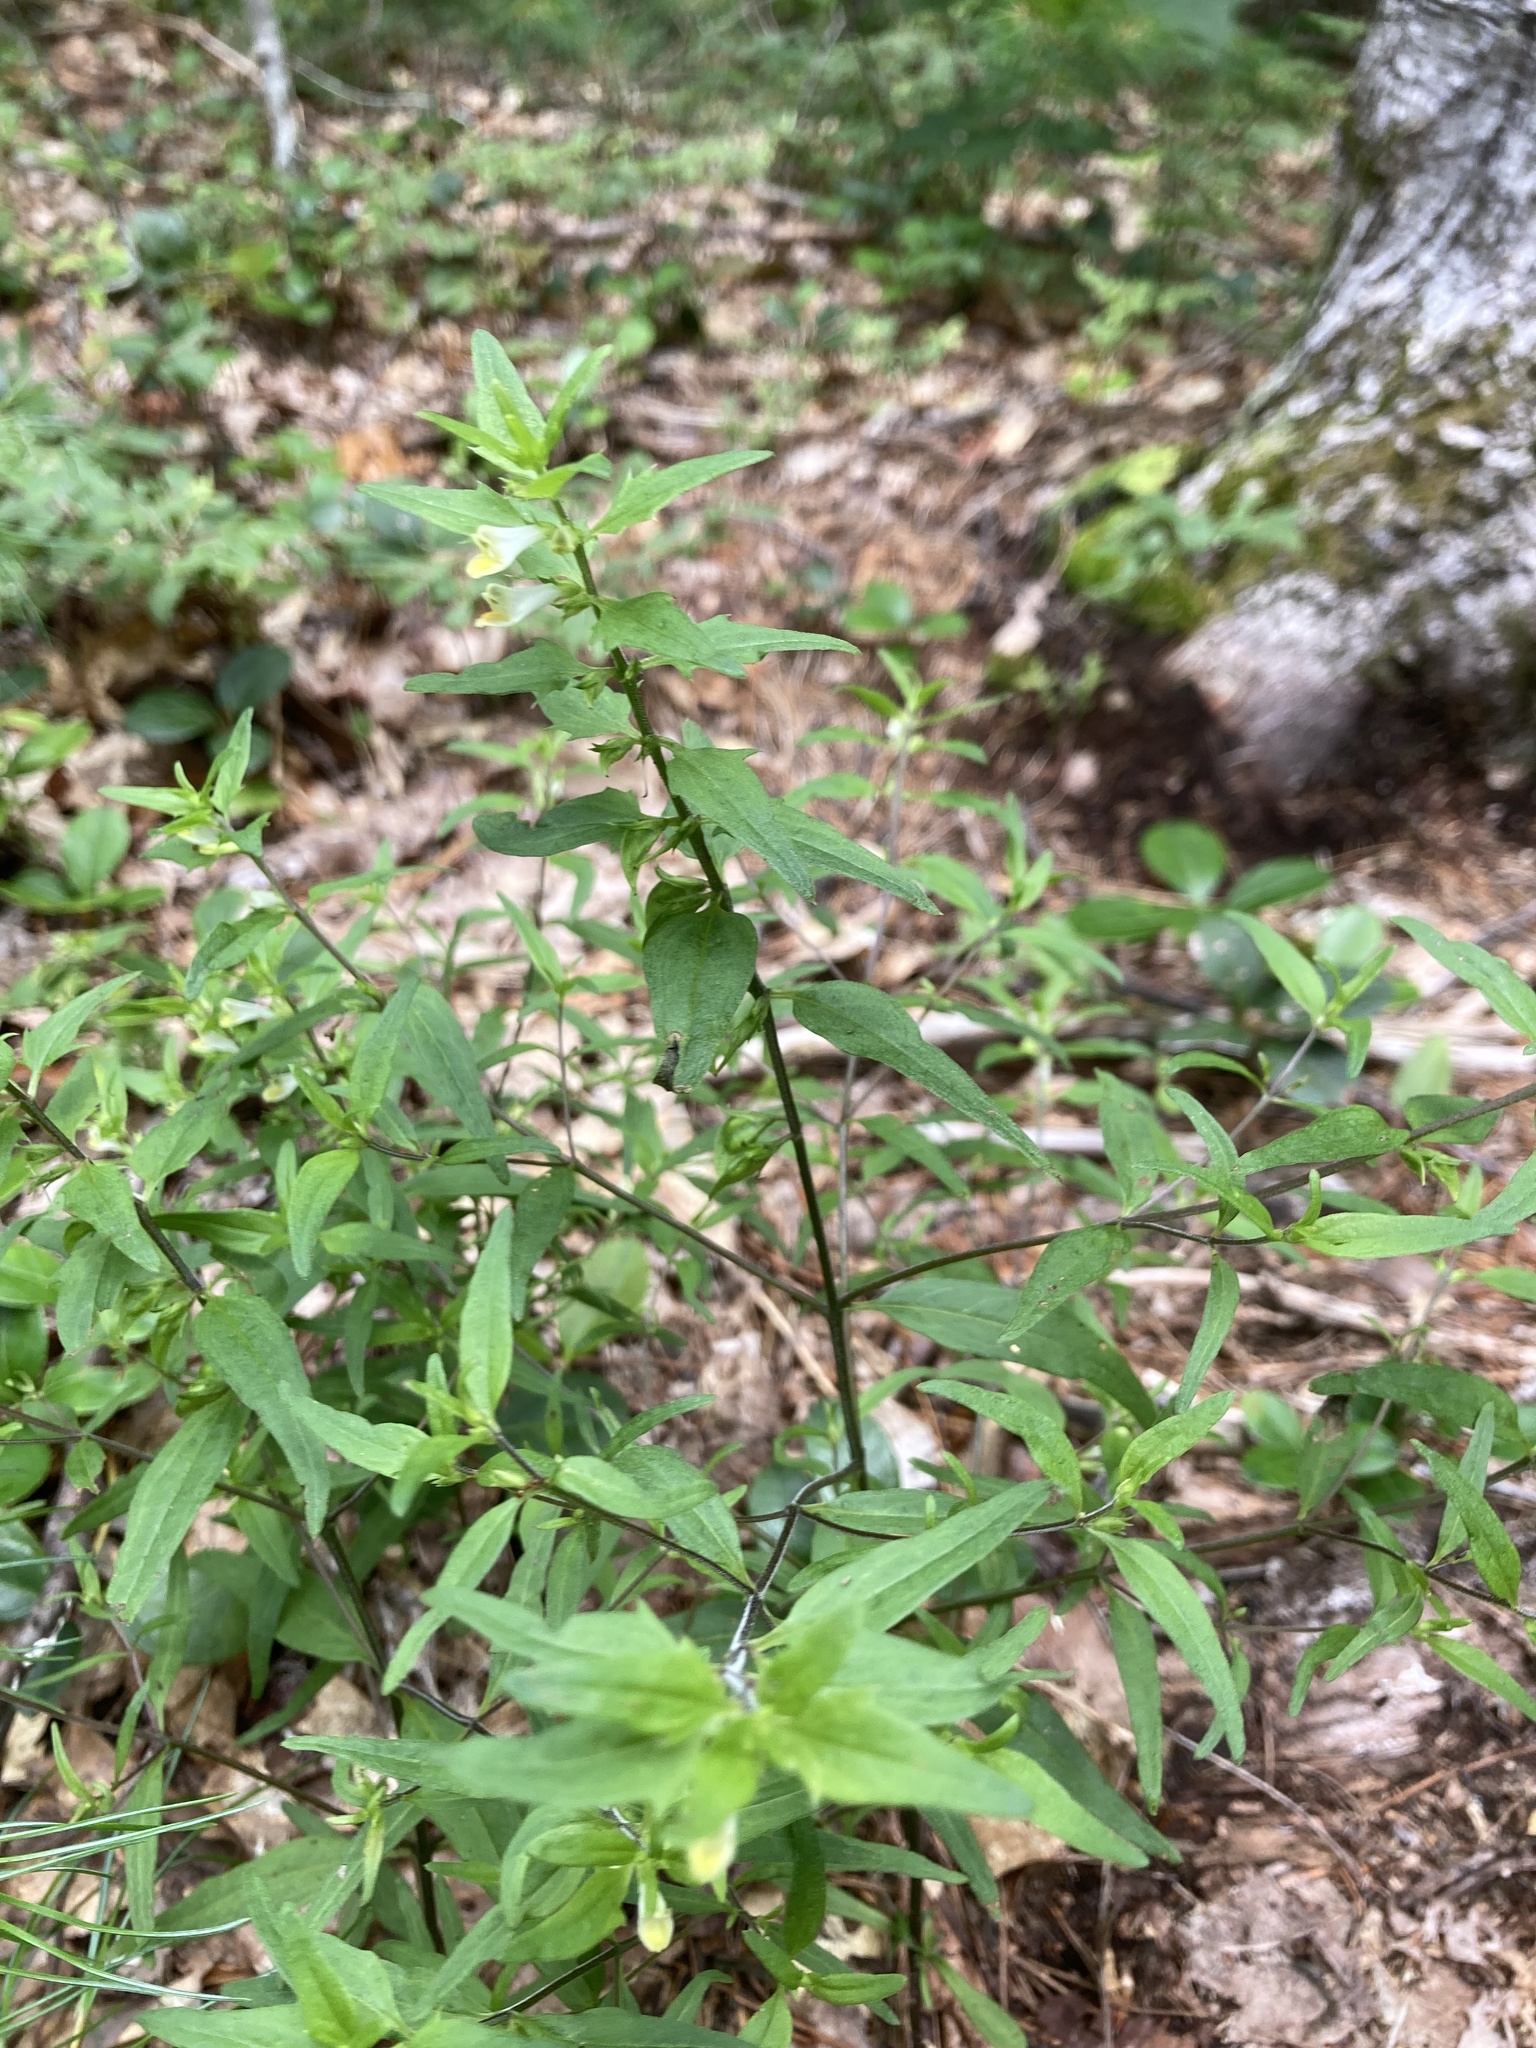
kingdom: Plantae
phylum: Tracheophyta
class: Magnoliopsida
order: Lamiales
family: Orobanchaceae
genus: Melampyrum
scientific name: Melampyrum lineare
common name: American cow-wheat
